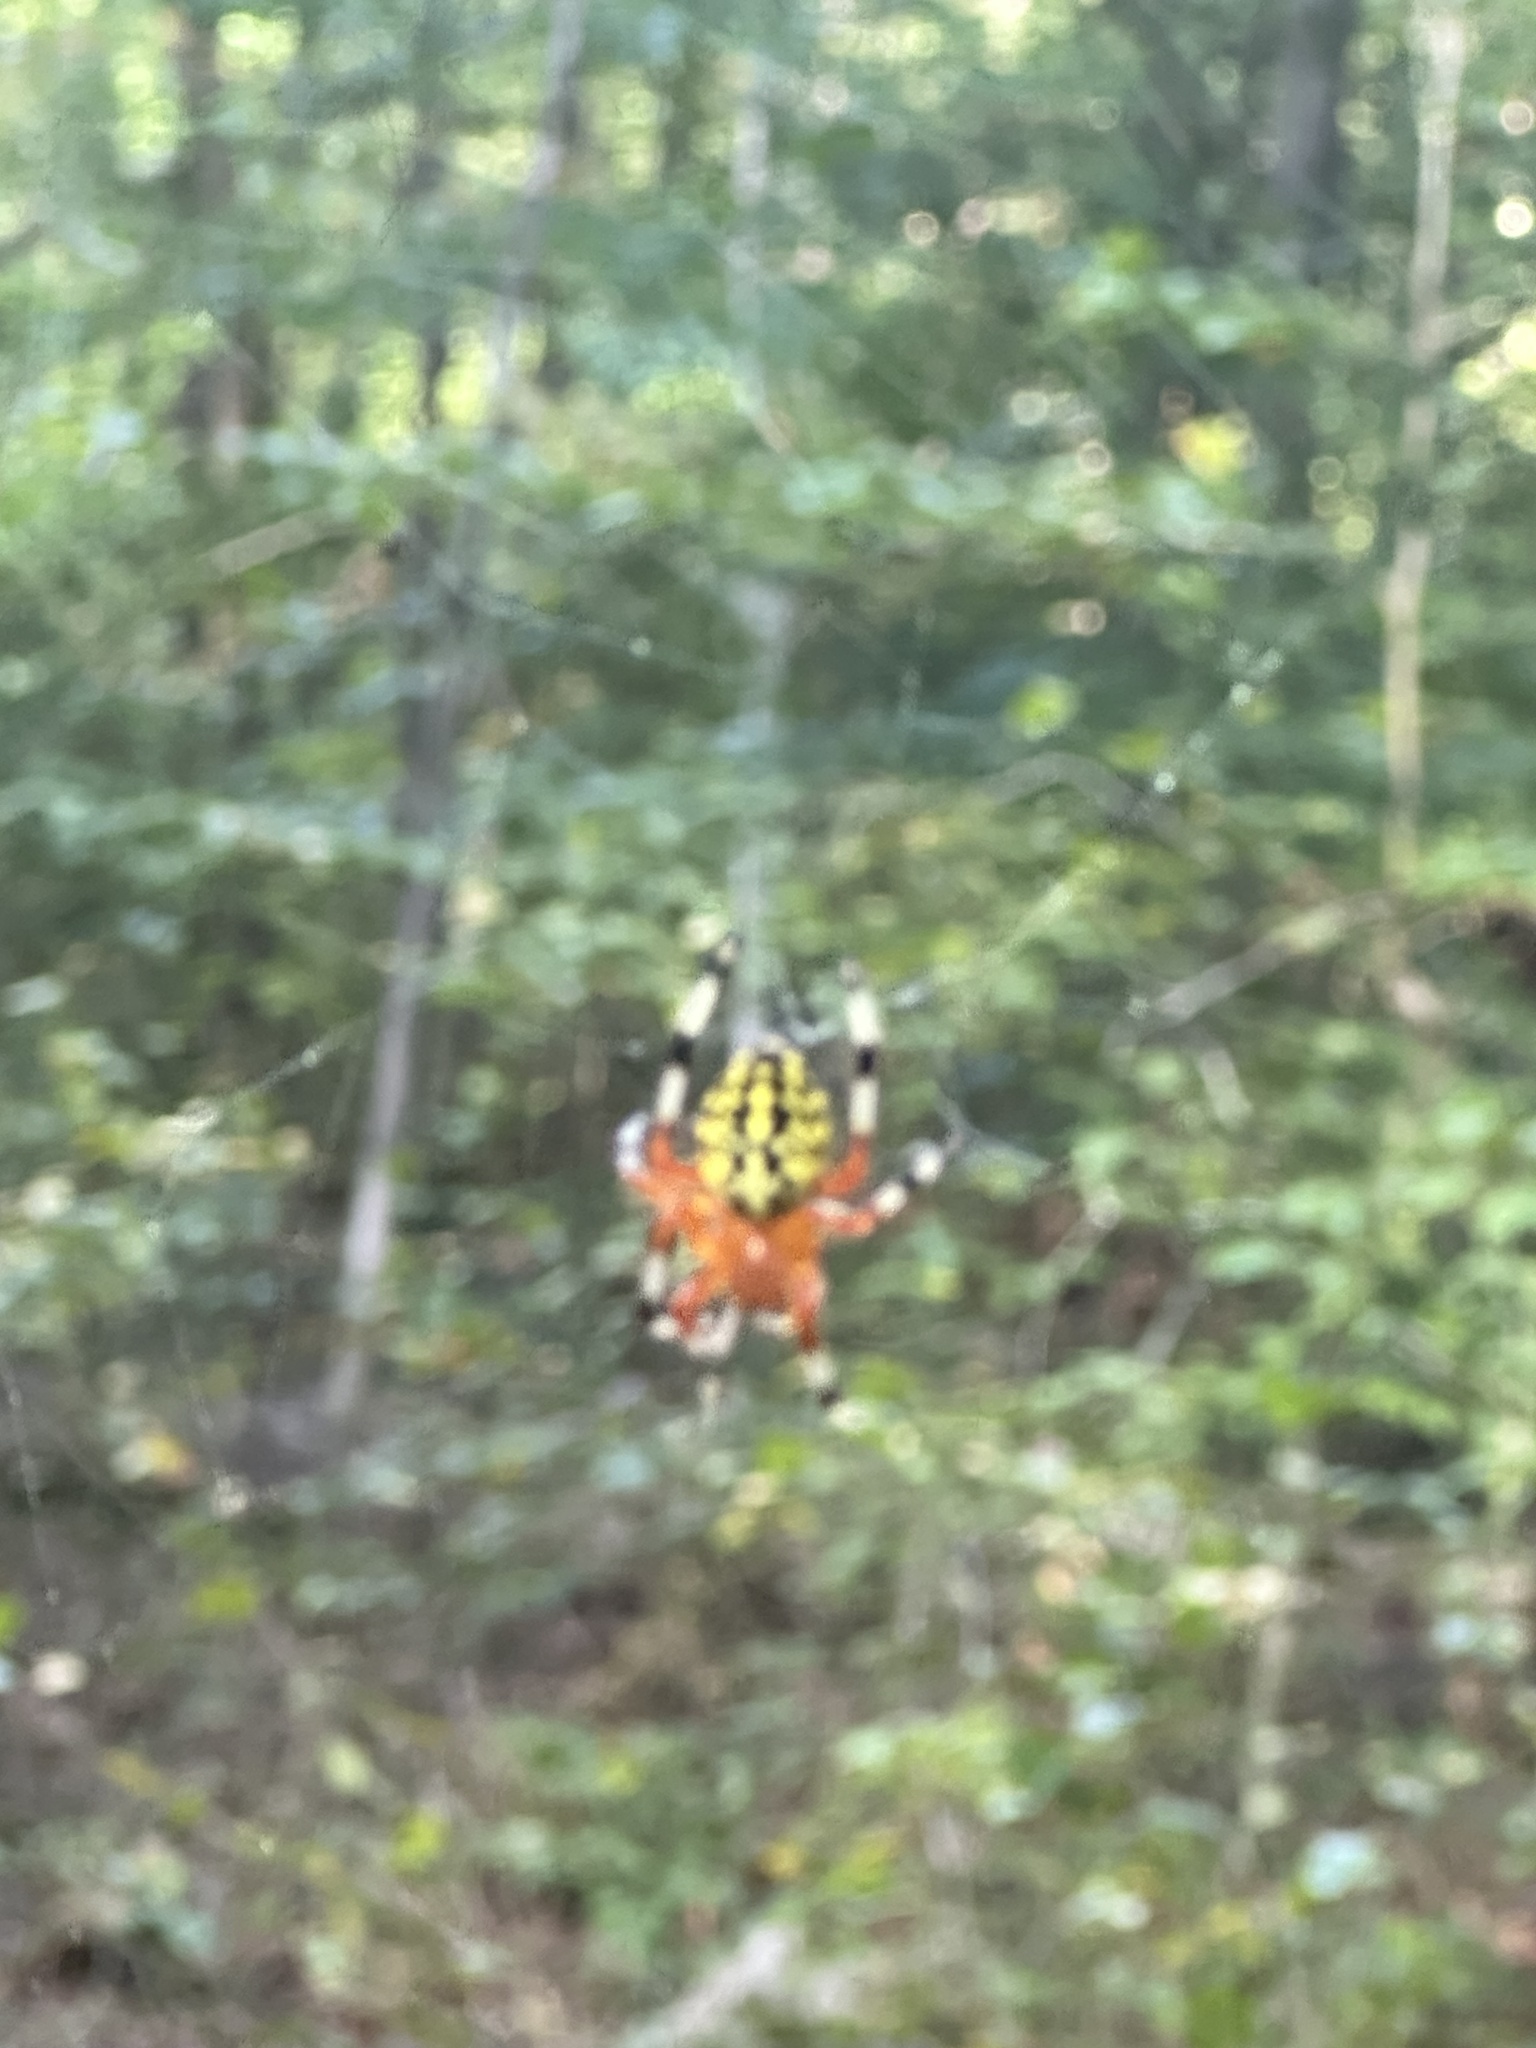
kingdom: Animalia
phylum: Arthropoda
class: Arachnida
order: Araneae
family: Araneidae
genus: Araneus
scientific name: Araneus marmoreus
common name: Marbled orbweaver
